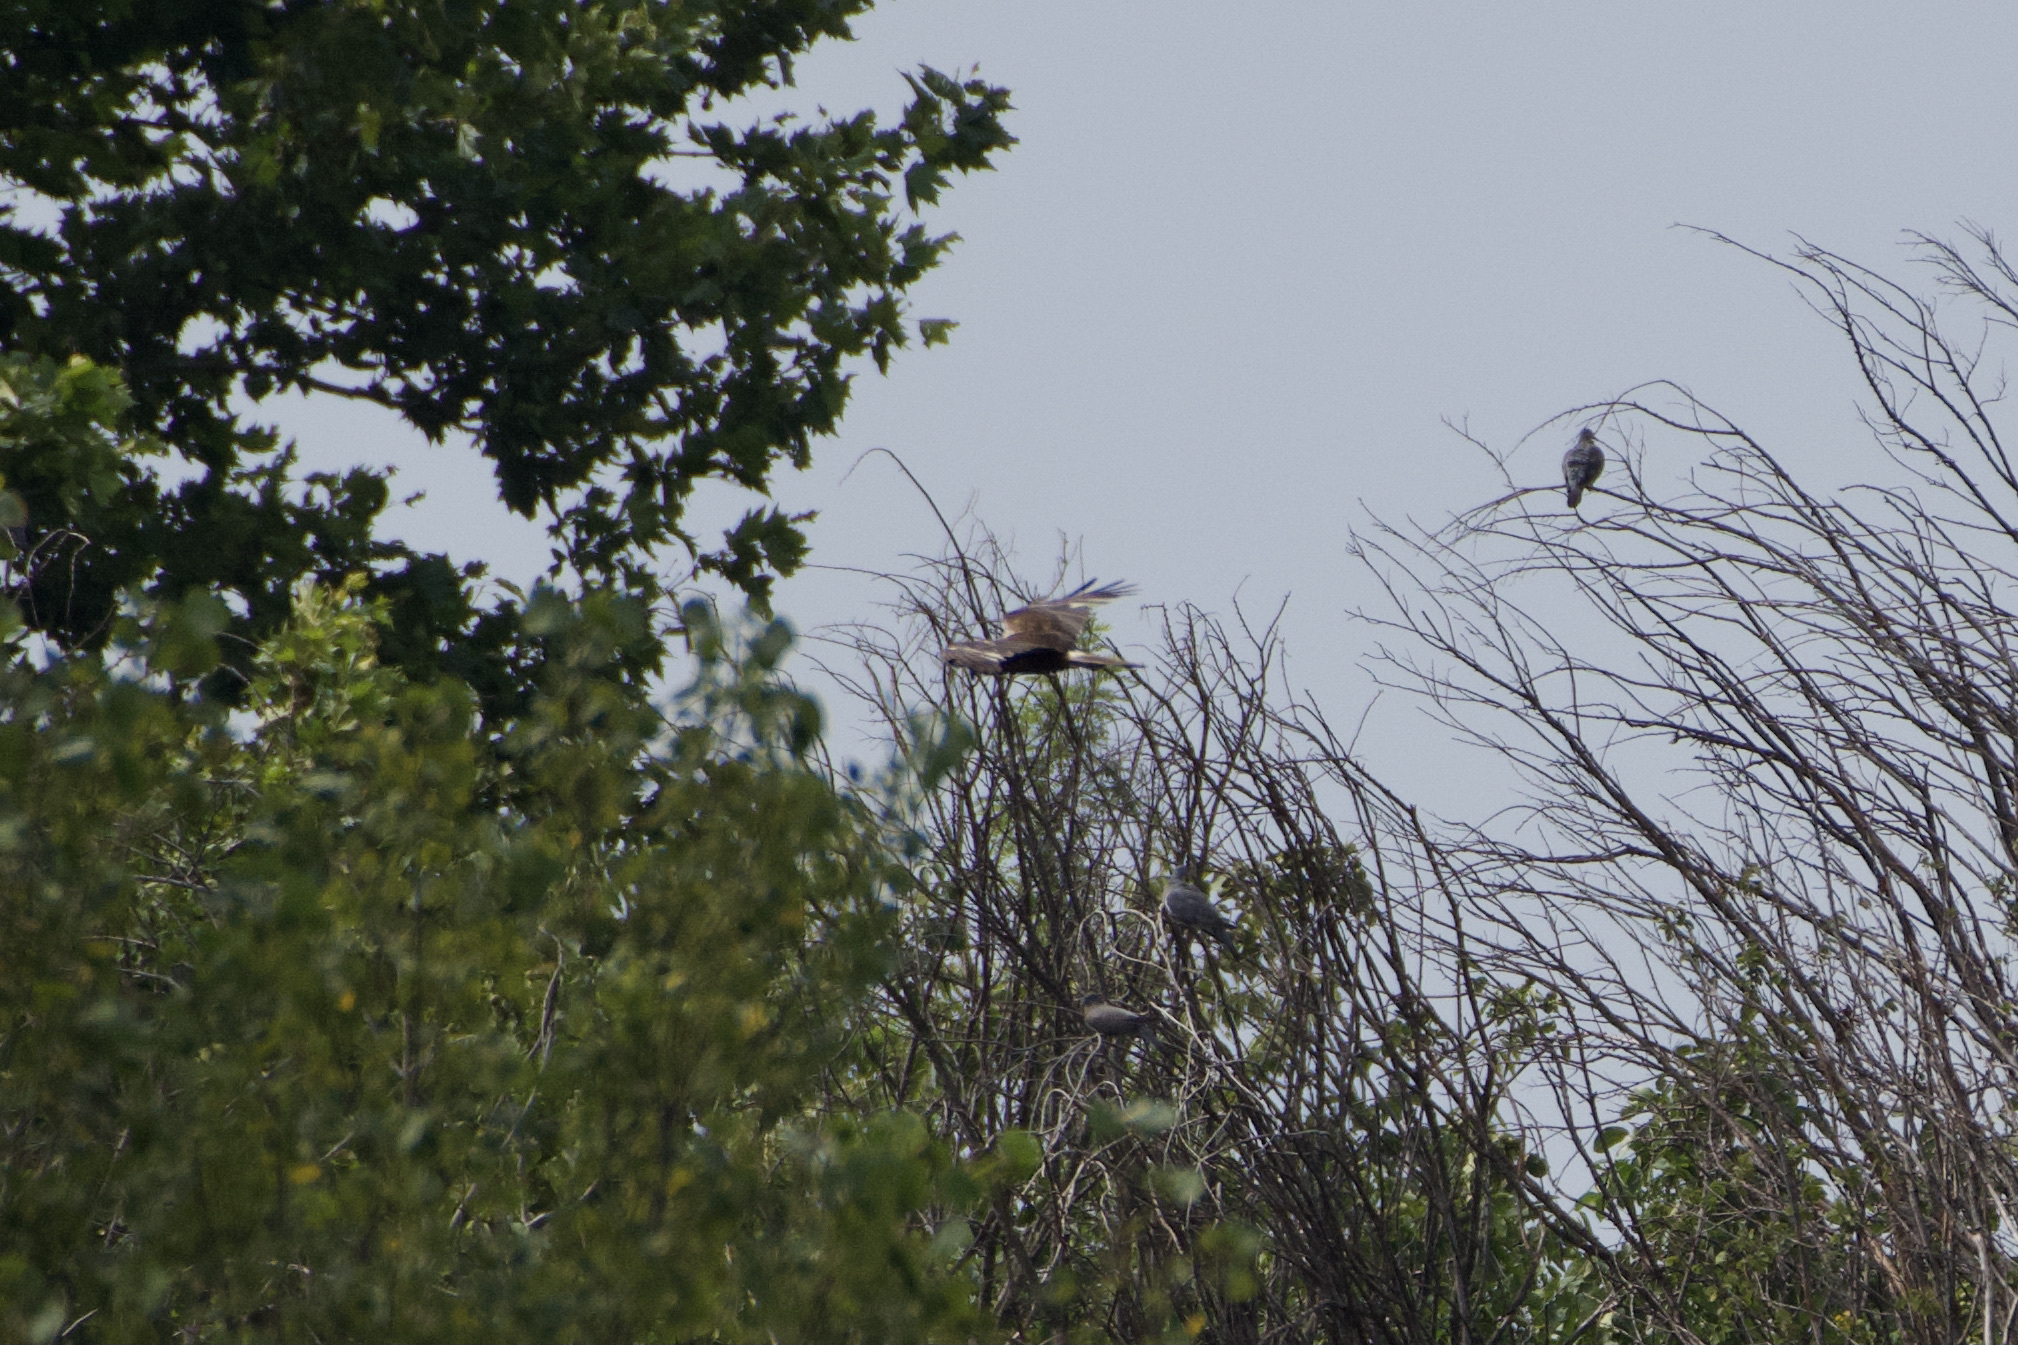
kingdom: Animalia
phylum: Chordata
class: Aves
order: Accipitriformes
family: Accipitridae
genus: Circus
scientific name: Circus aeruginosus
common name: Western marsh harrier
